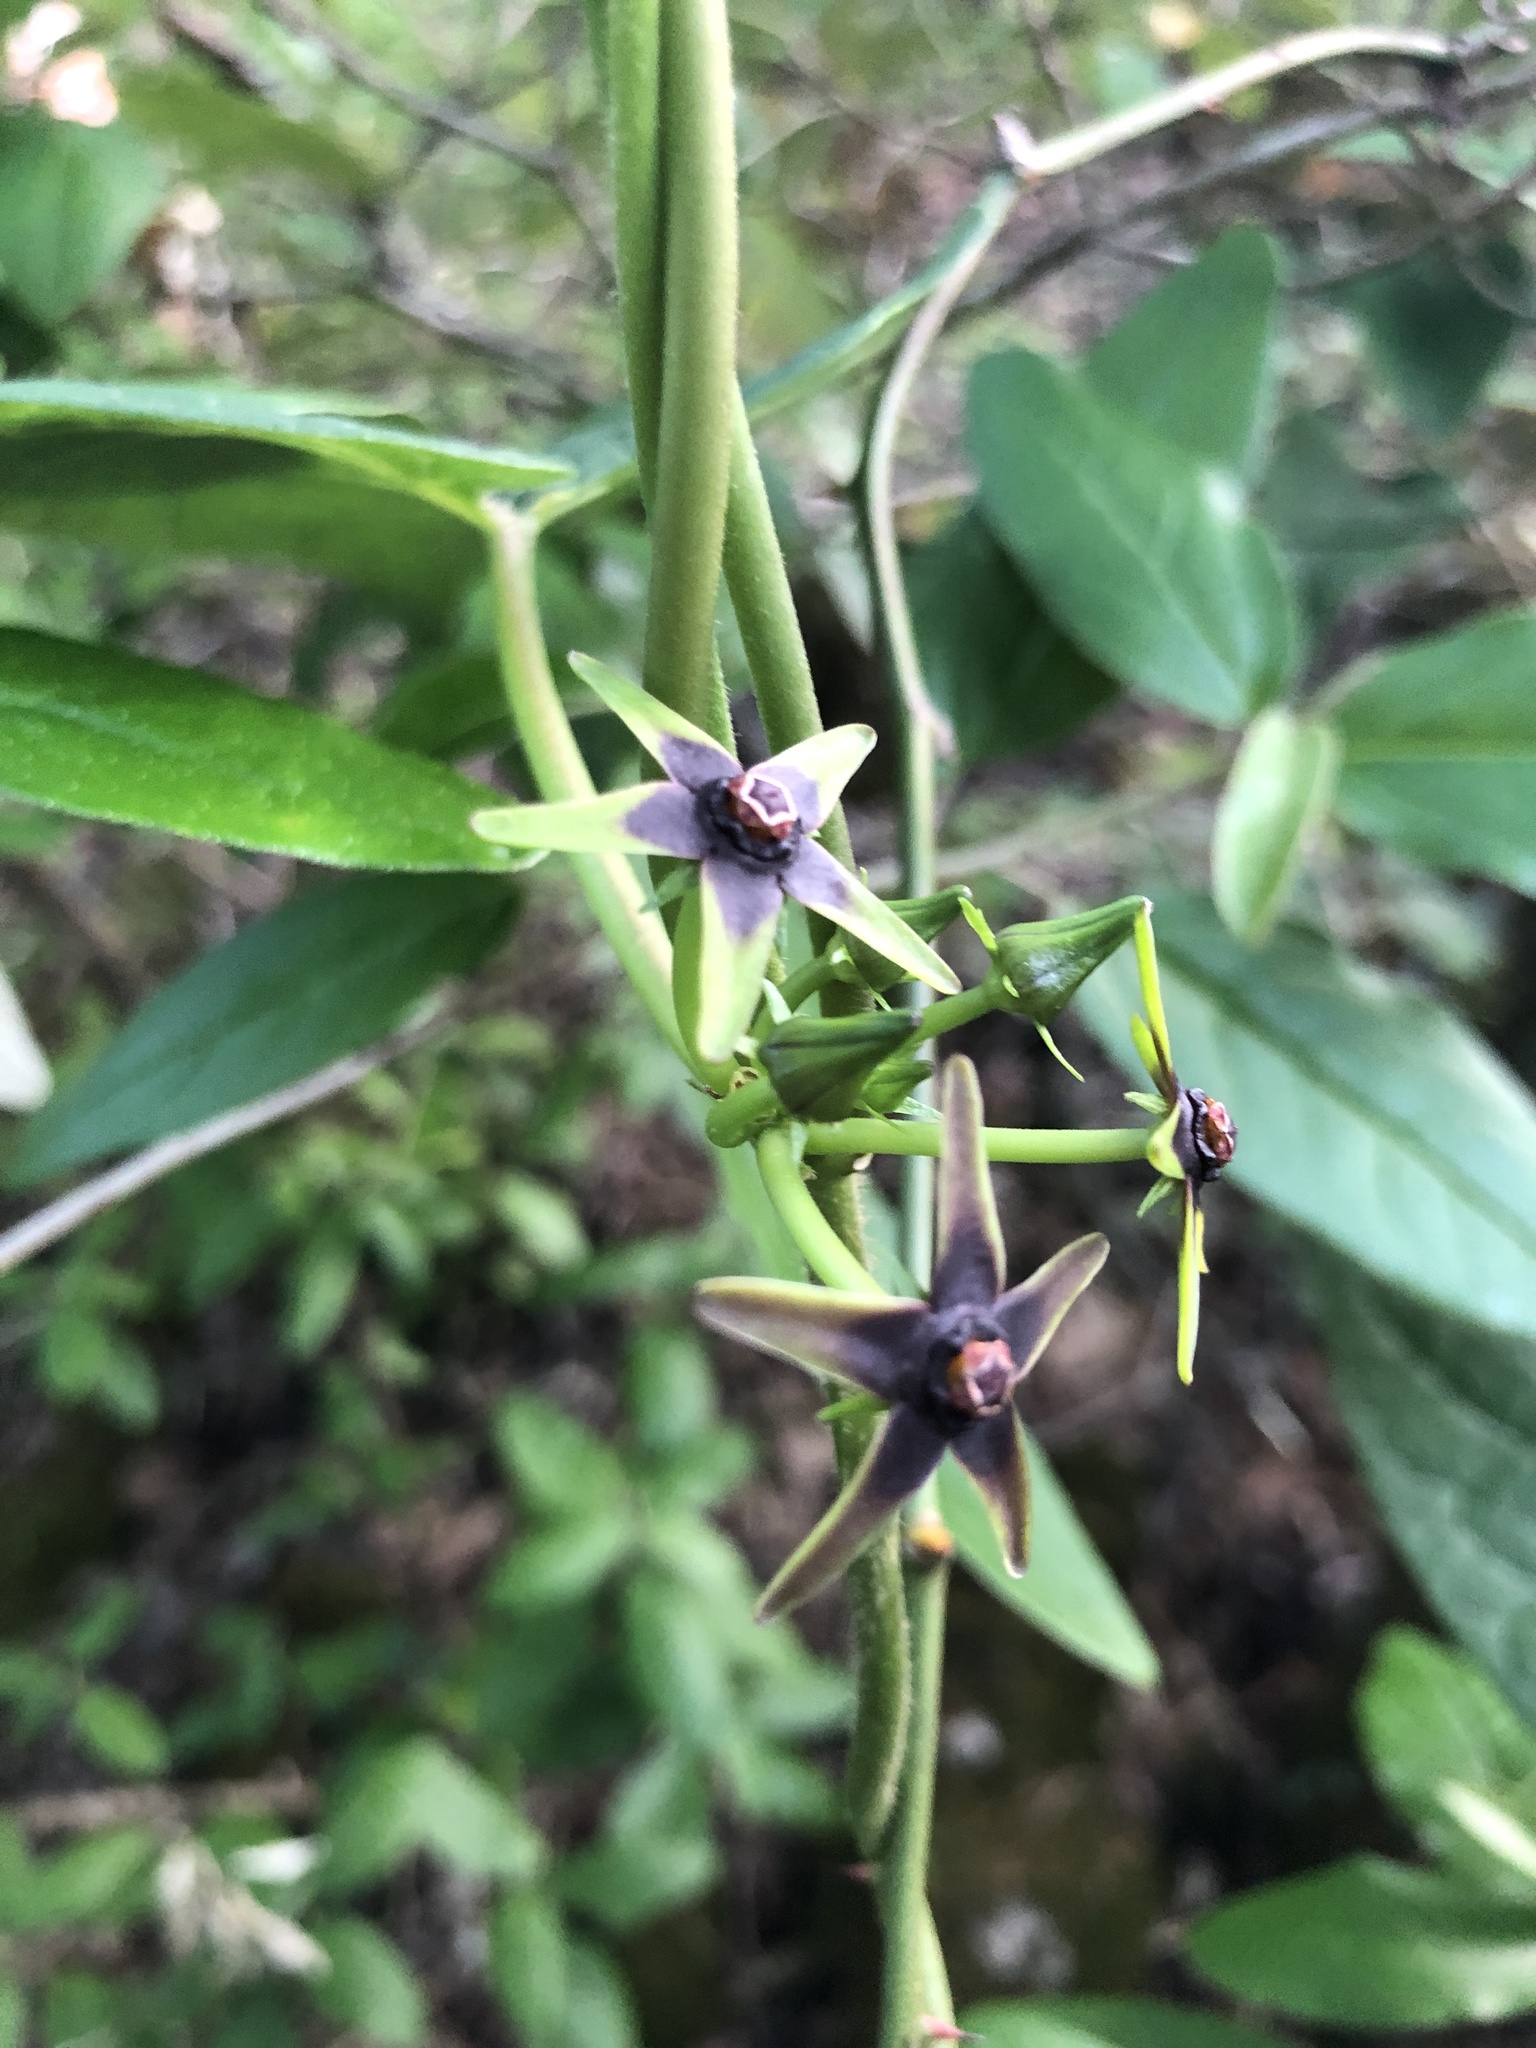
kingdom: Plantae
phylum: Tracheophyta
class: Magnoliopsida
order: Gentianales
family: Apocynaceae
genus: Gonolobus
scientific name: Gonolobus suberosus
